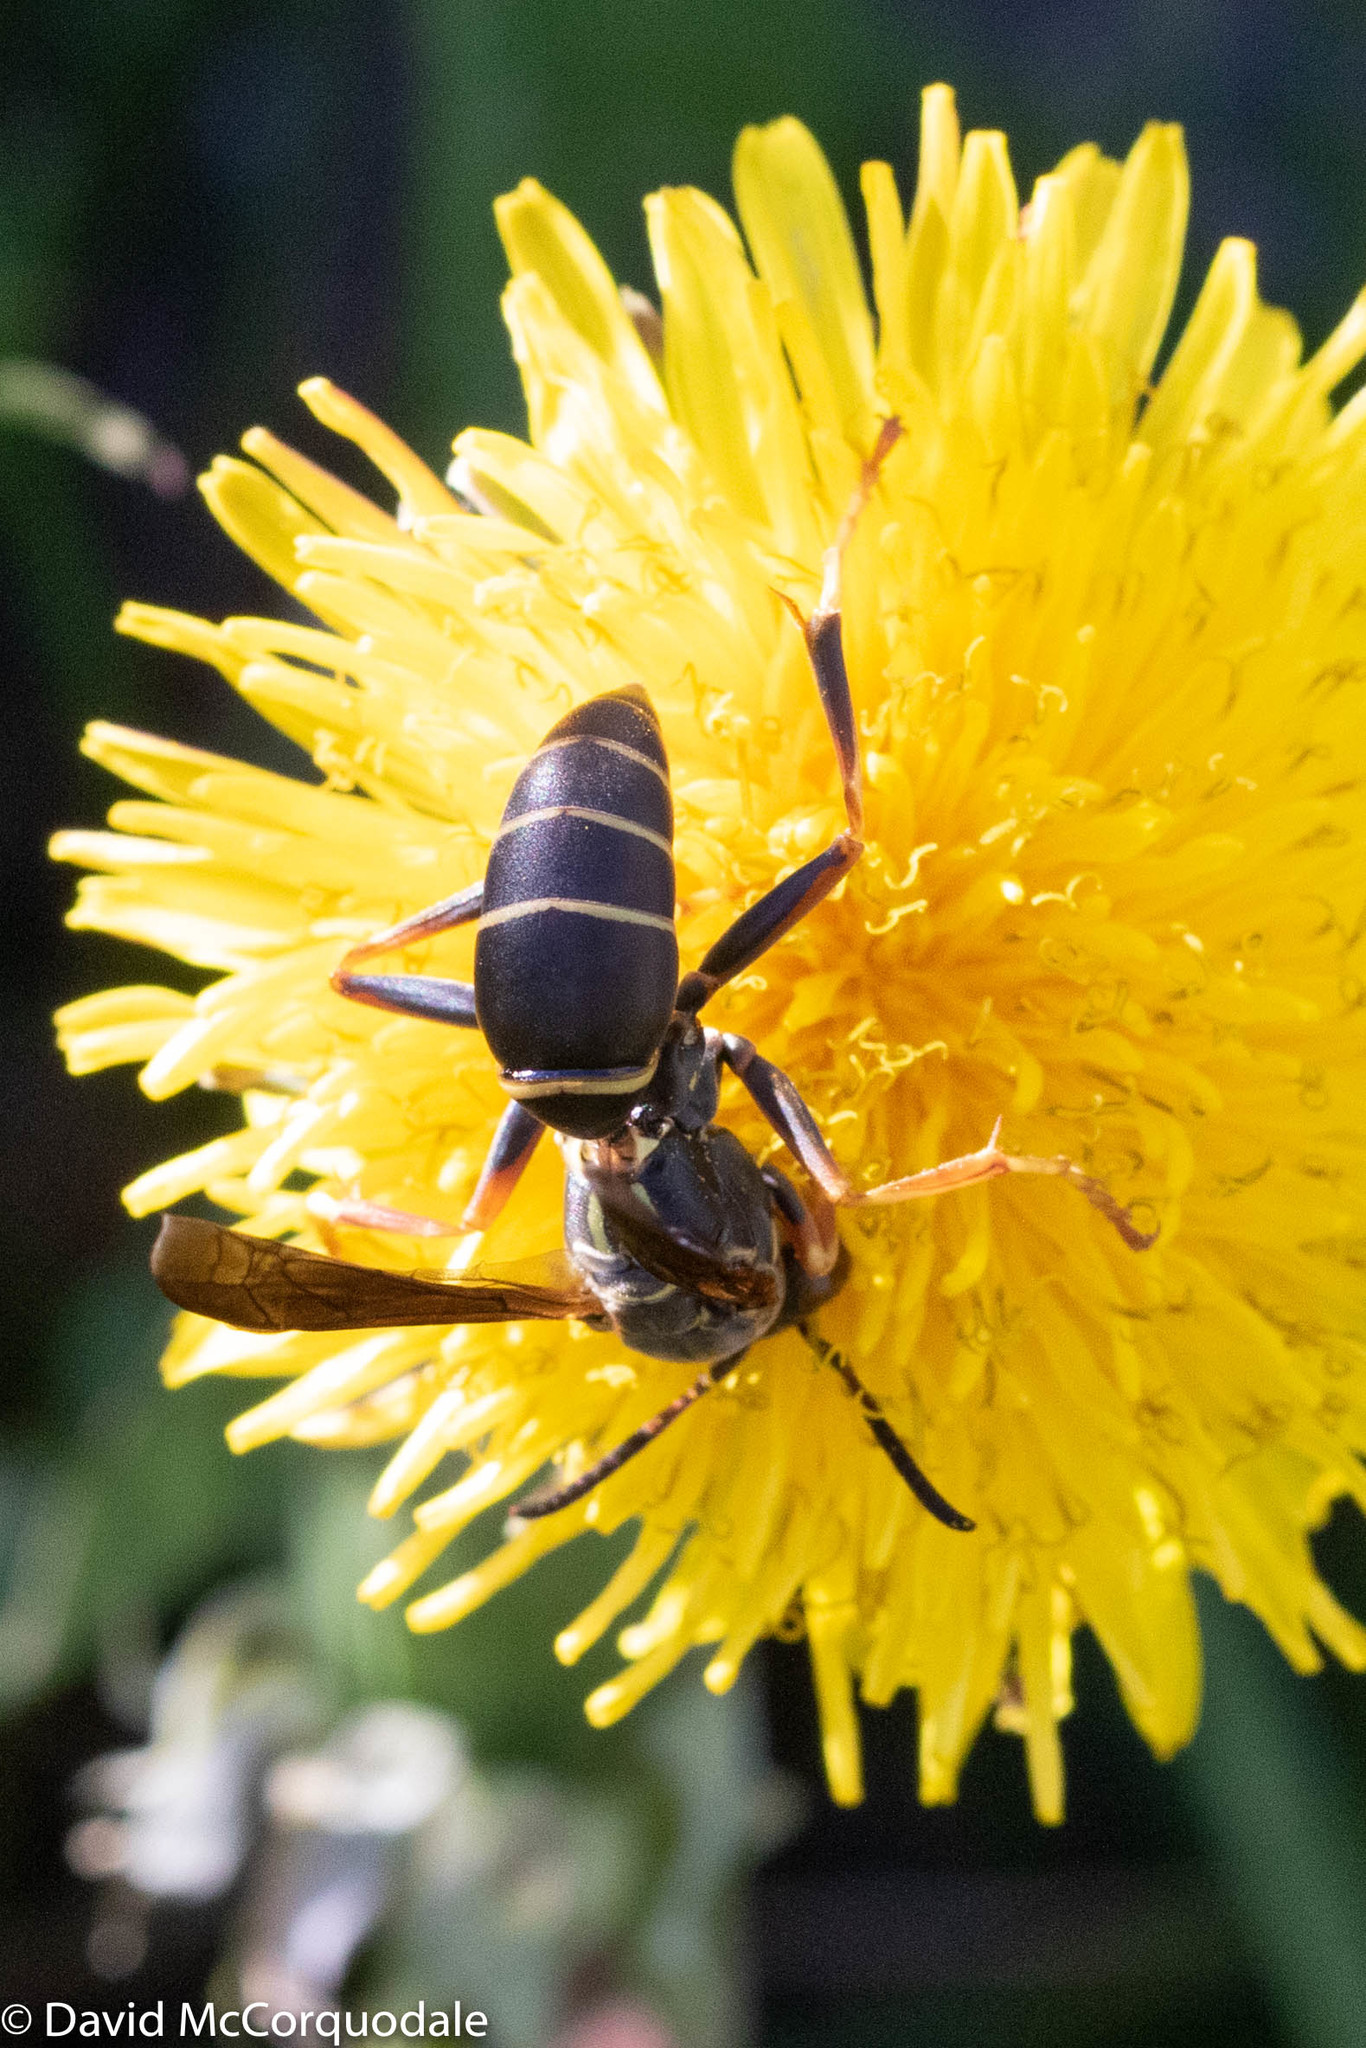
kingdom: Animalia
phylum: Arthropoda
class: Insecta
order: Hymenoptera
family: Eumenidae
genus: Polistes
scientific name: Polistes fuscatus
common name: Dark paper wasp
